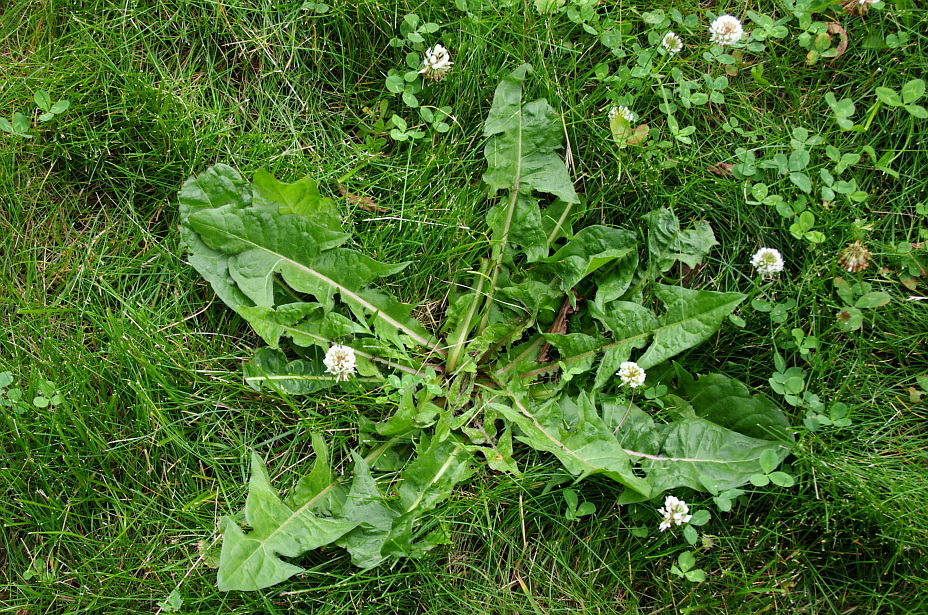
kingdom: Plantae
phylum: Tracheophyta
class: Magnoliopsida
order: Asterales
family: Asteraceae
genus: Taraxacum
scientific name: Taraxacum officinale
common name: Common dandelion
